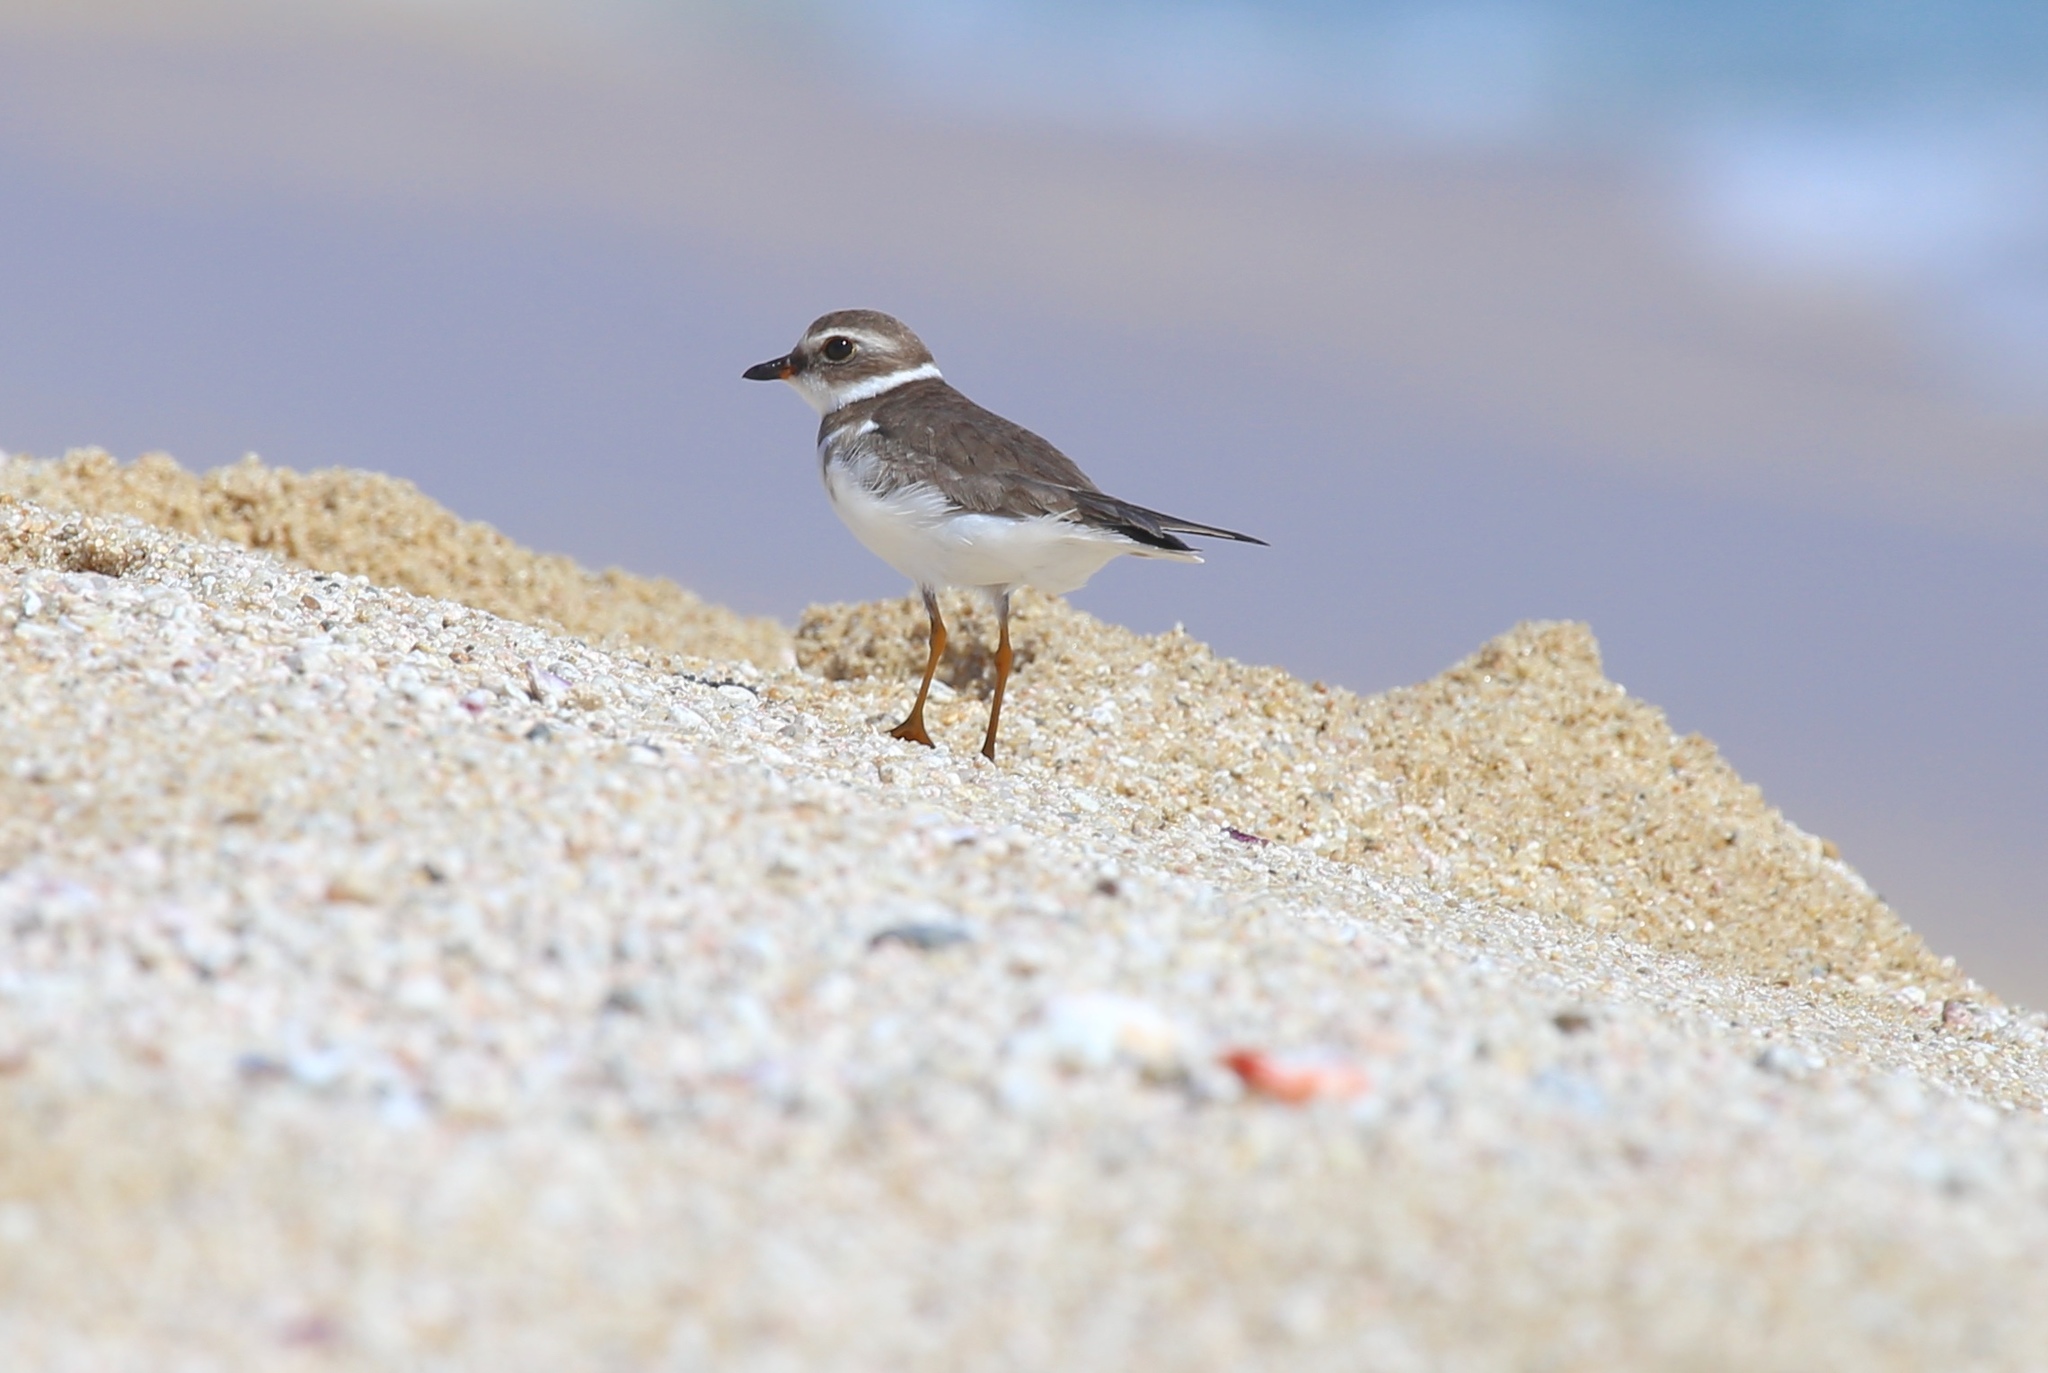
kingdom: Animalia
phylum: Chordata
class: Aves
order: Charadriiformes
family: Charadriidae
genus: Charadrius
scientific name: Charadrius semipalmatus
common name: Semipalmated plover
